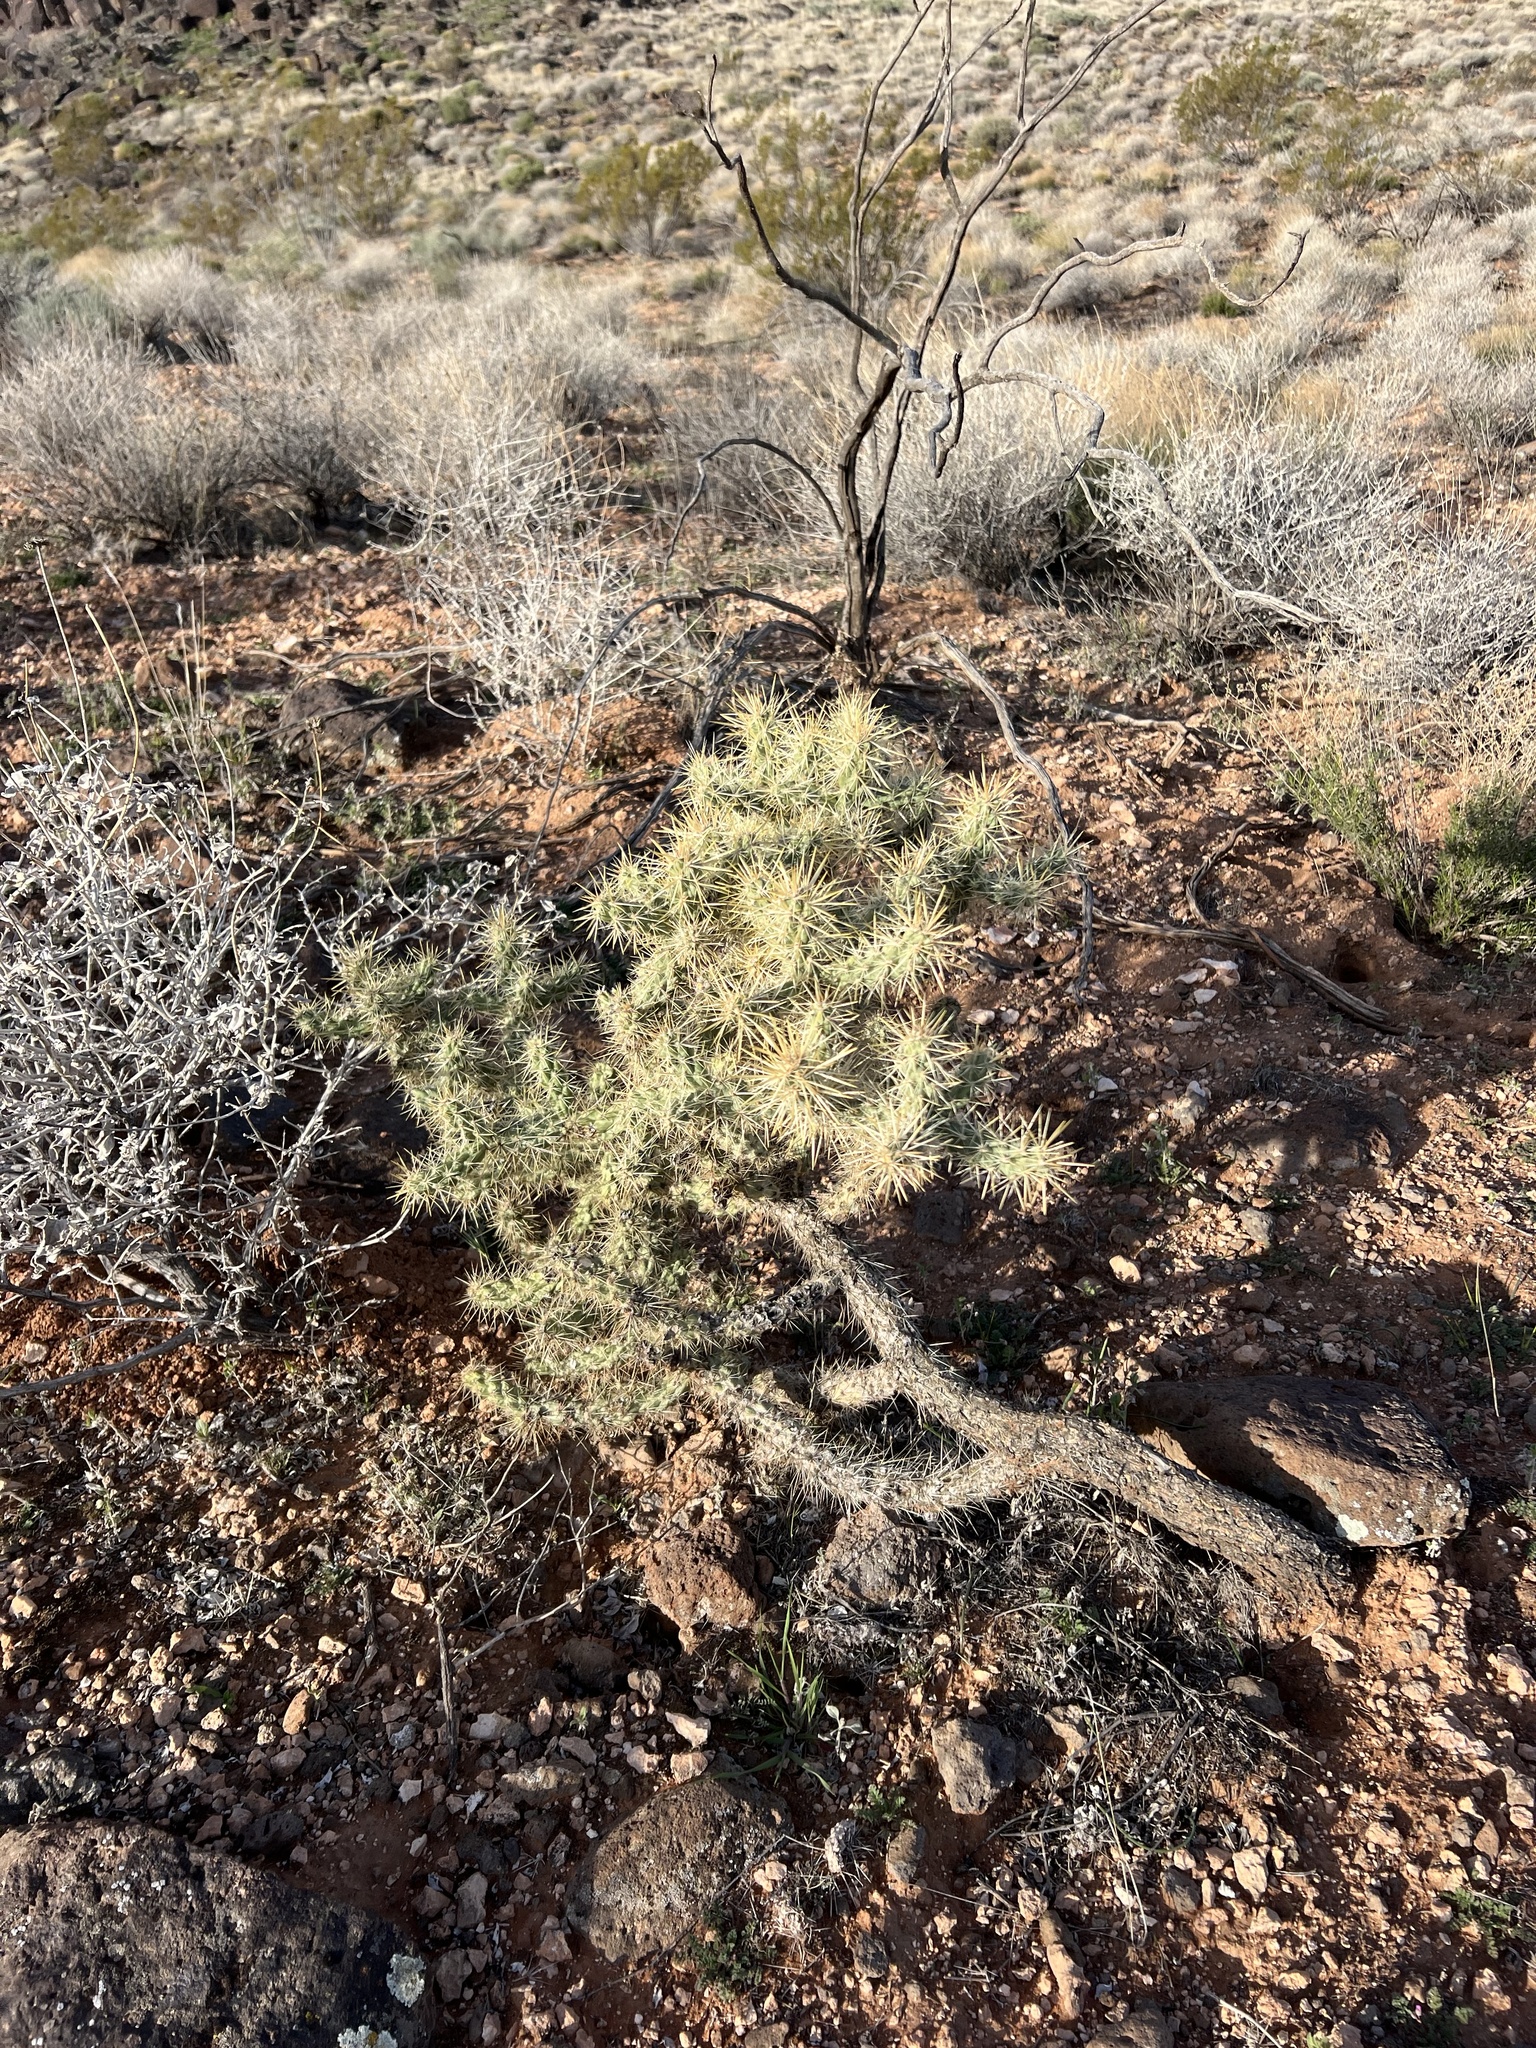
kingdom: Plantae
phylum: Tracheophyta
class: Magnoliopsida
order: Caryophyllales
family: Cactaceae
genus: Cylindropuntia
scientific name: Cylindropuntia echinocarpa
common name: Ground cholla
